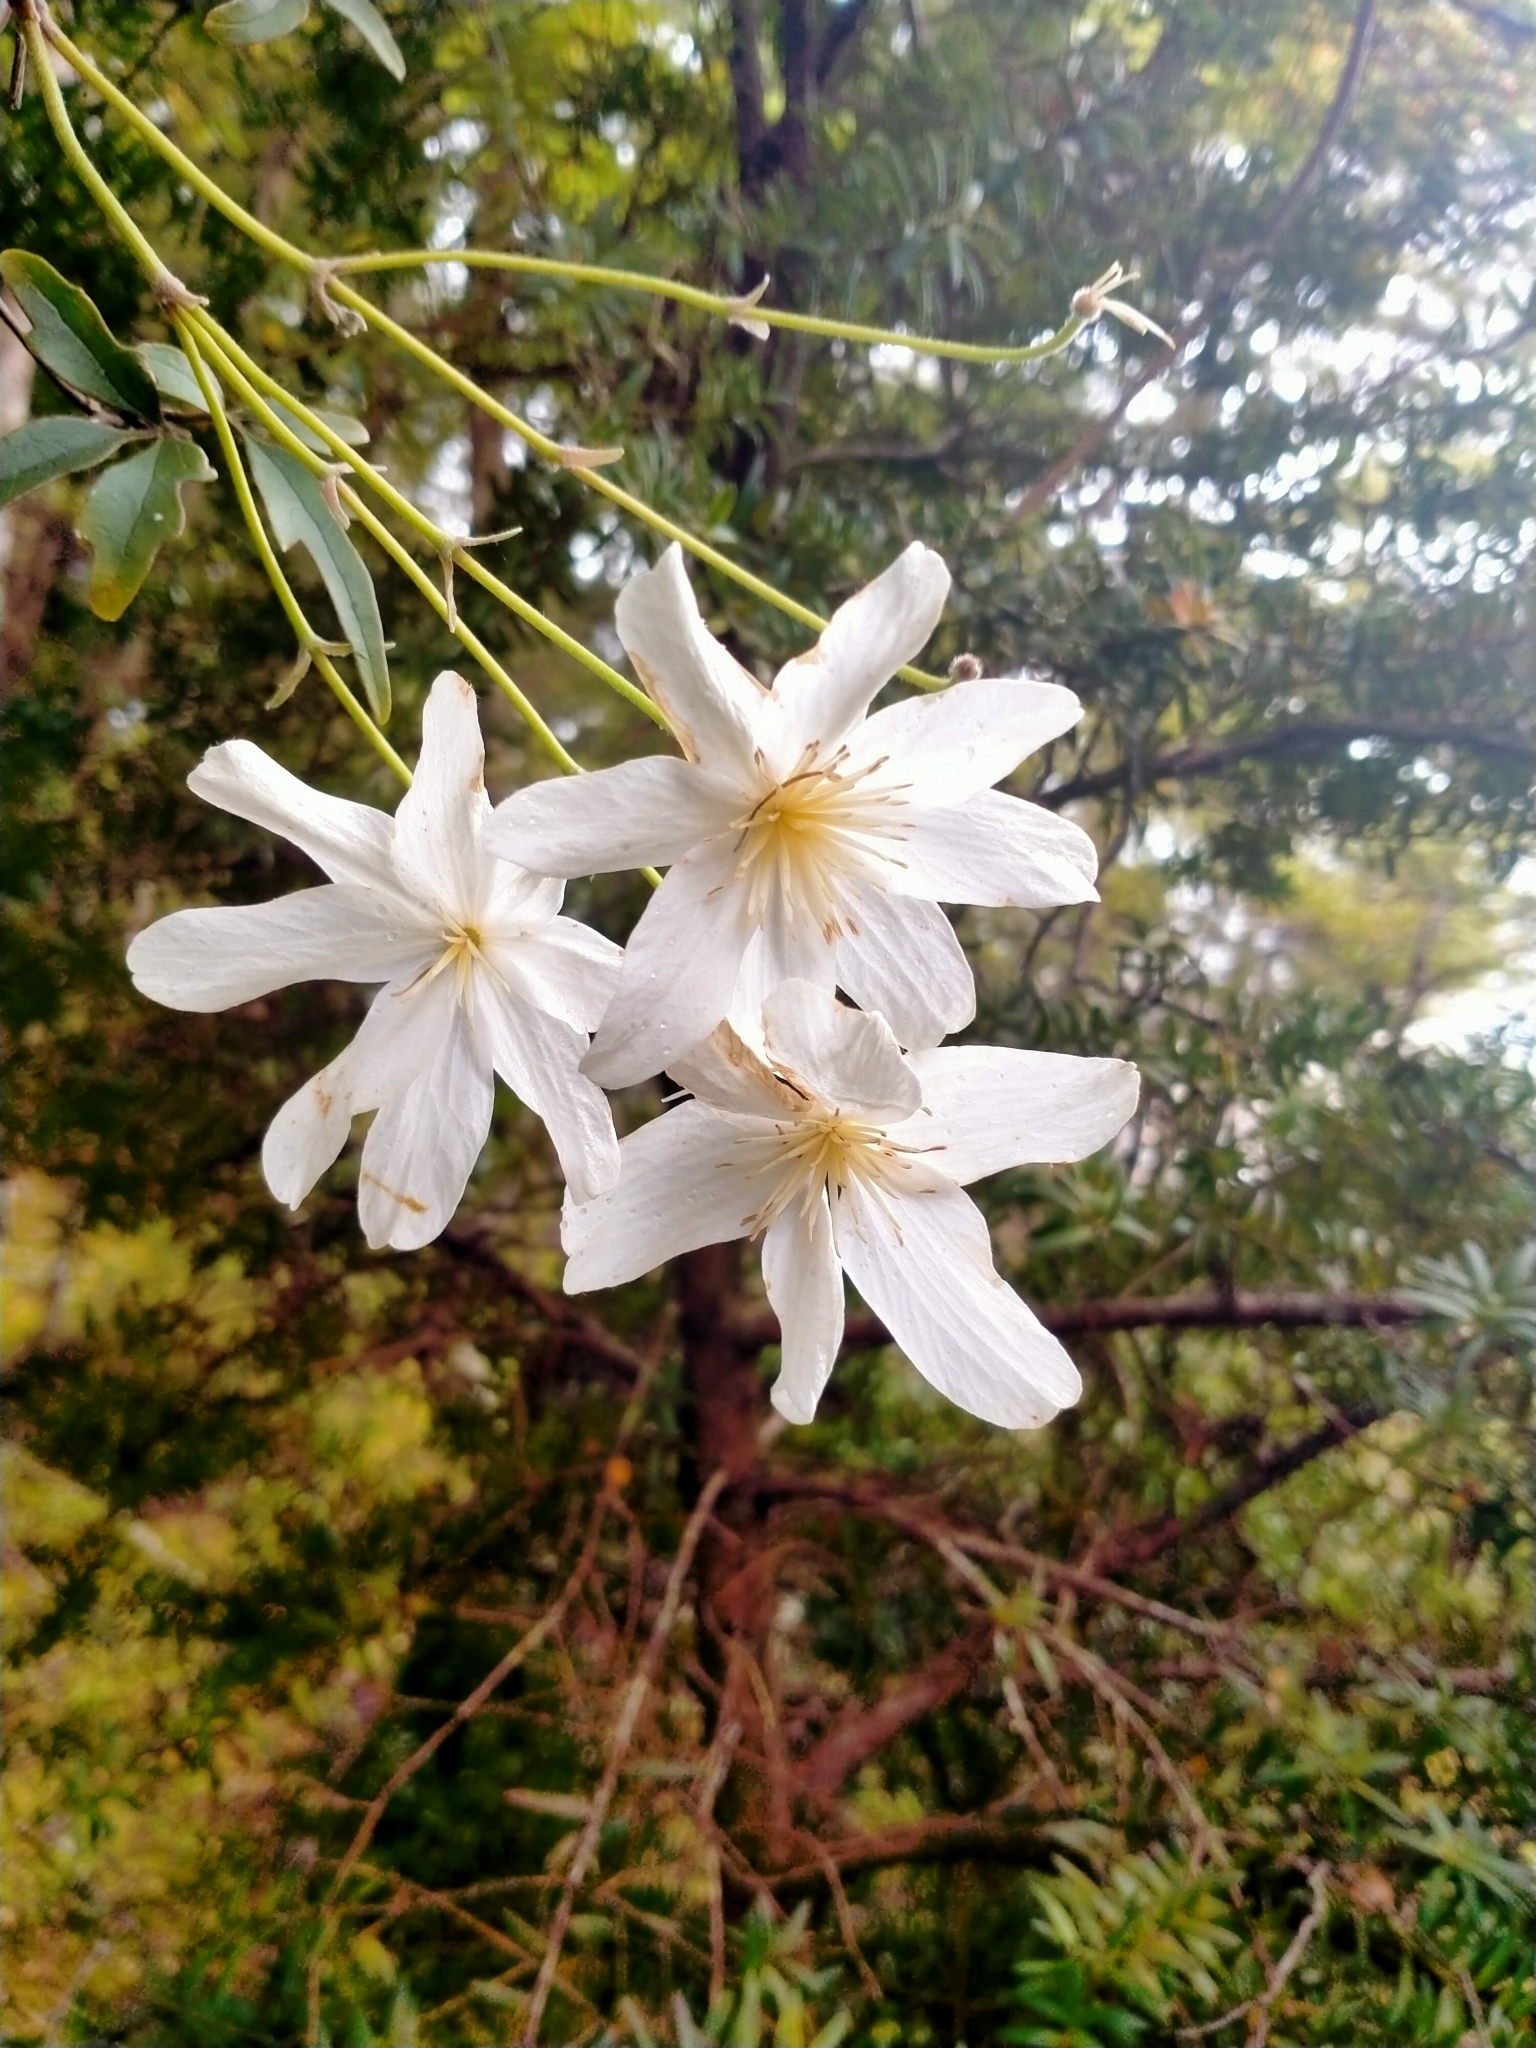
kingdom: Plantae
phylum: Tracheophyta
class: Magnoliopsida
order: Ranunculales
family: Ranunculaceae
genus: Clematis
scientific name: Clematis paniculata
